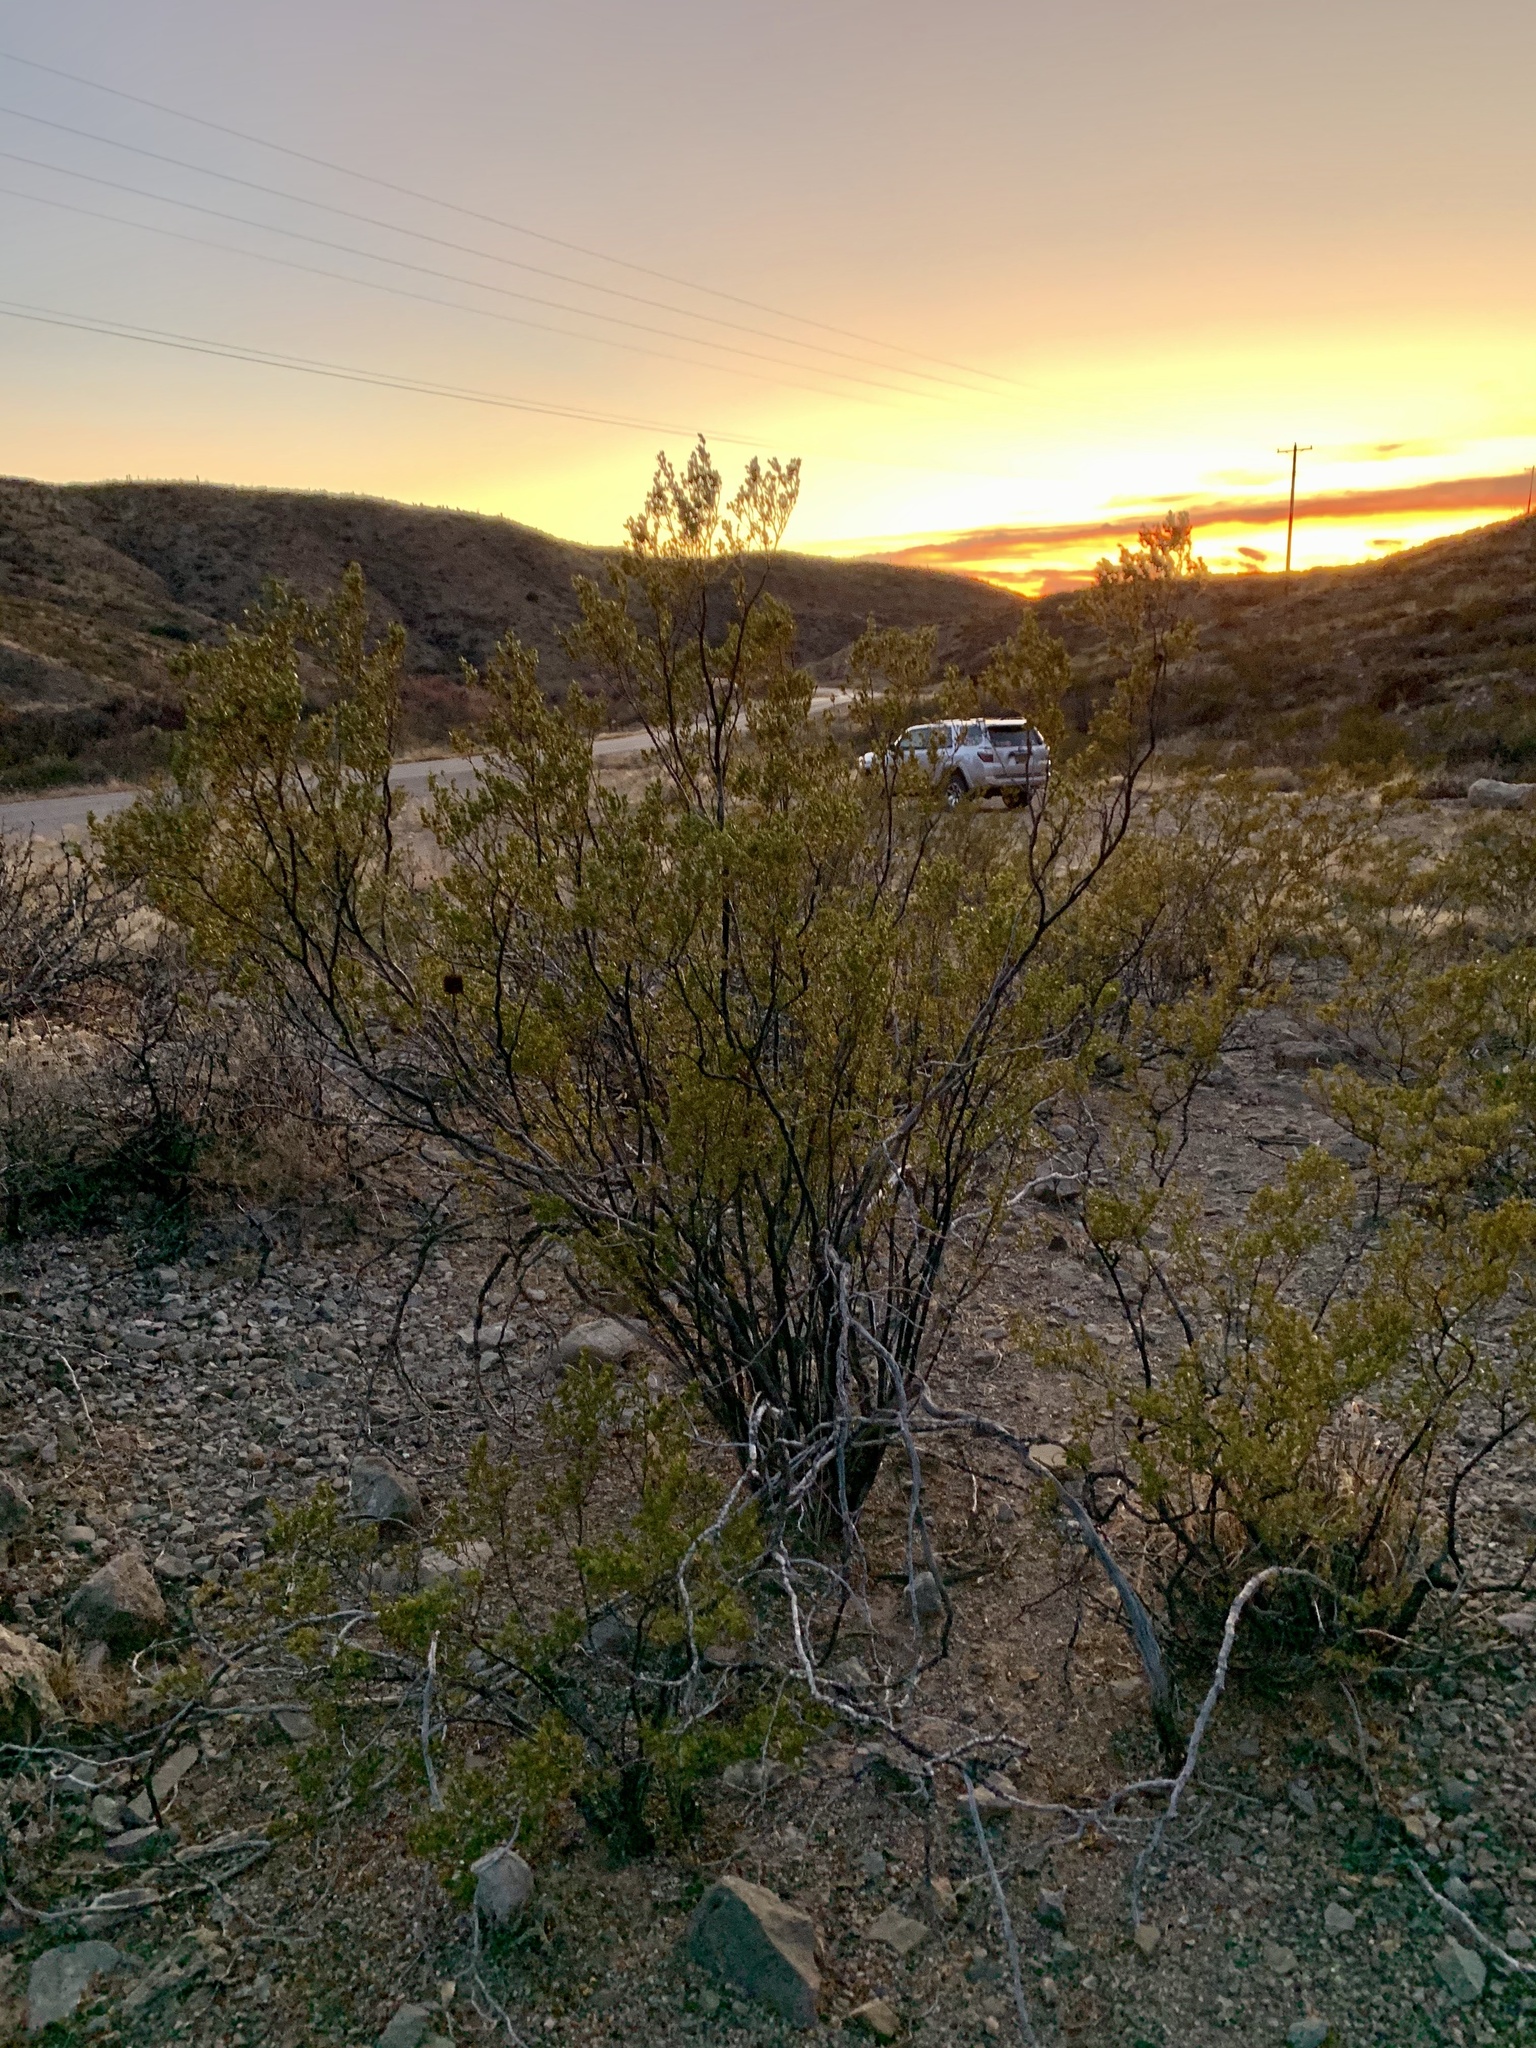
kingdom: Plantae
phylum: Tracheophyta
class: Magnoliopsida
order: Zygophyllales
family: Zygophyllaceae
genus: Larrea
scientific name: Larrea tridentata
